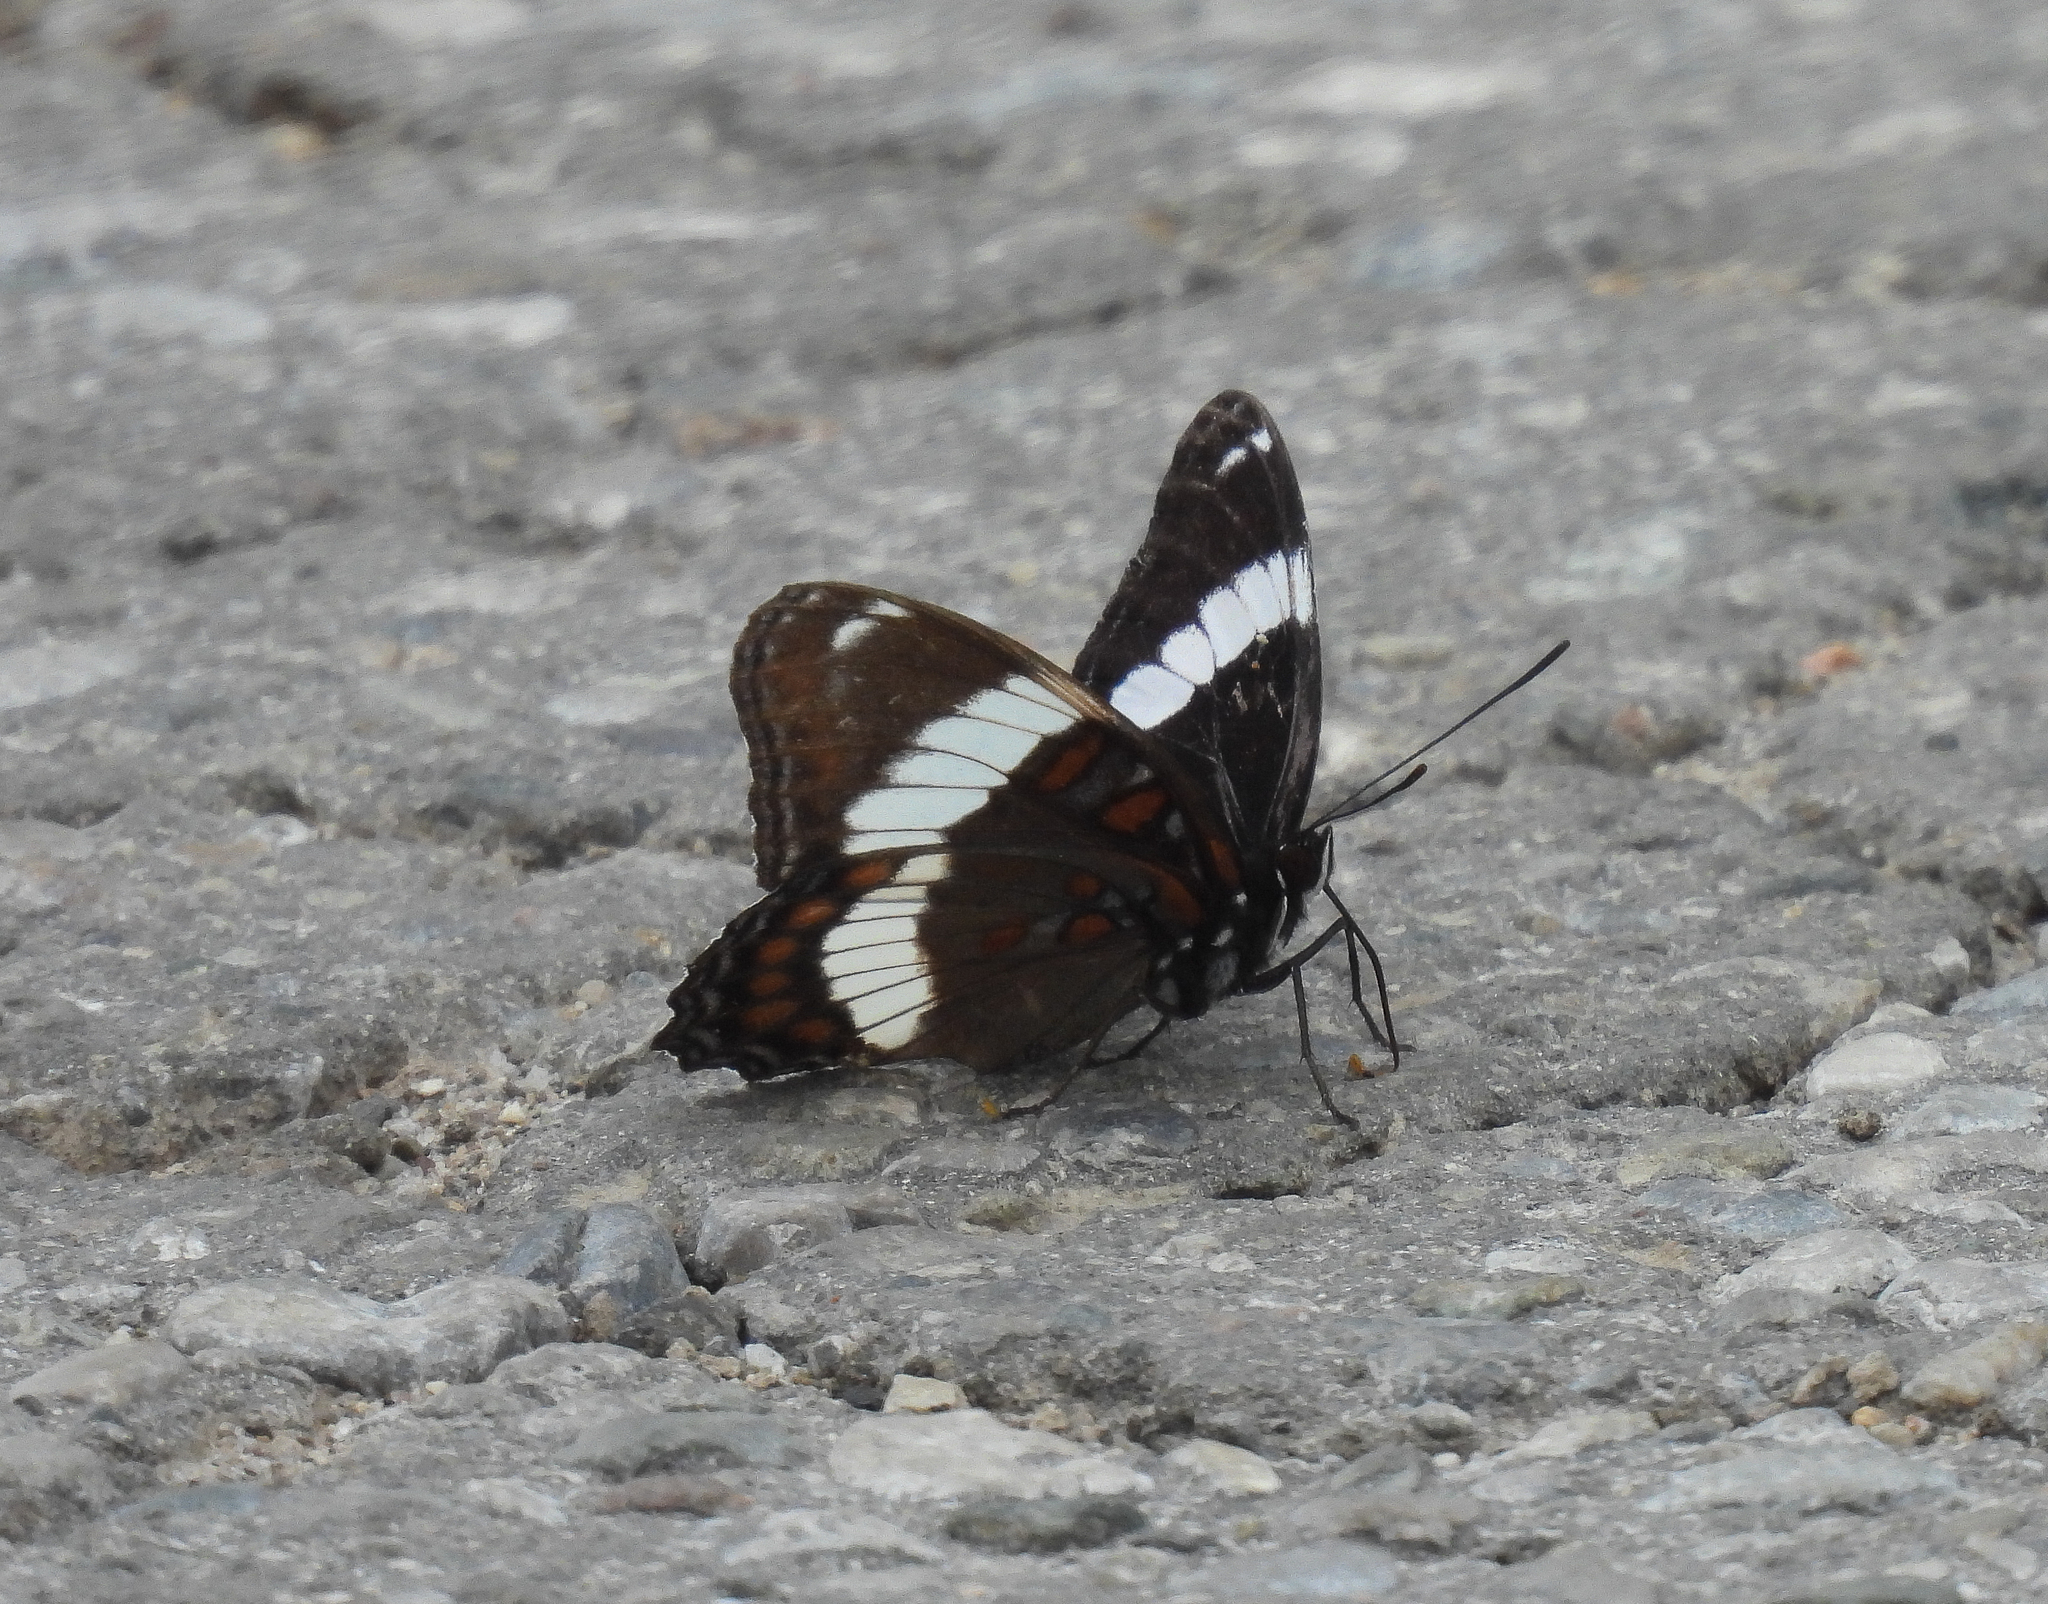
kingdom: Animalia
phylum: Arthropoda
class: Insecta
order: Lepidoptera
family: Nymphalidae
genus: Limenitis
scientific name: Limenitis arthemis
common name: Red-spotted admiral
